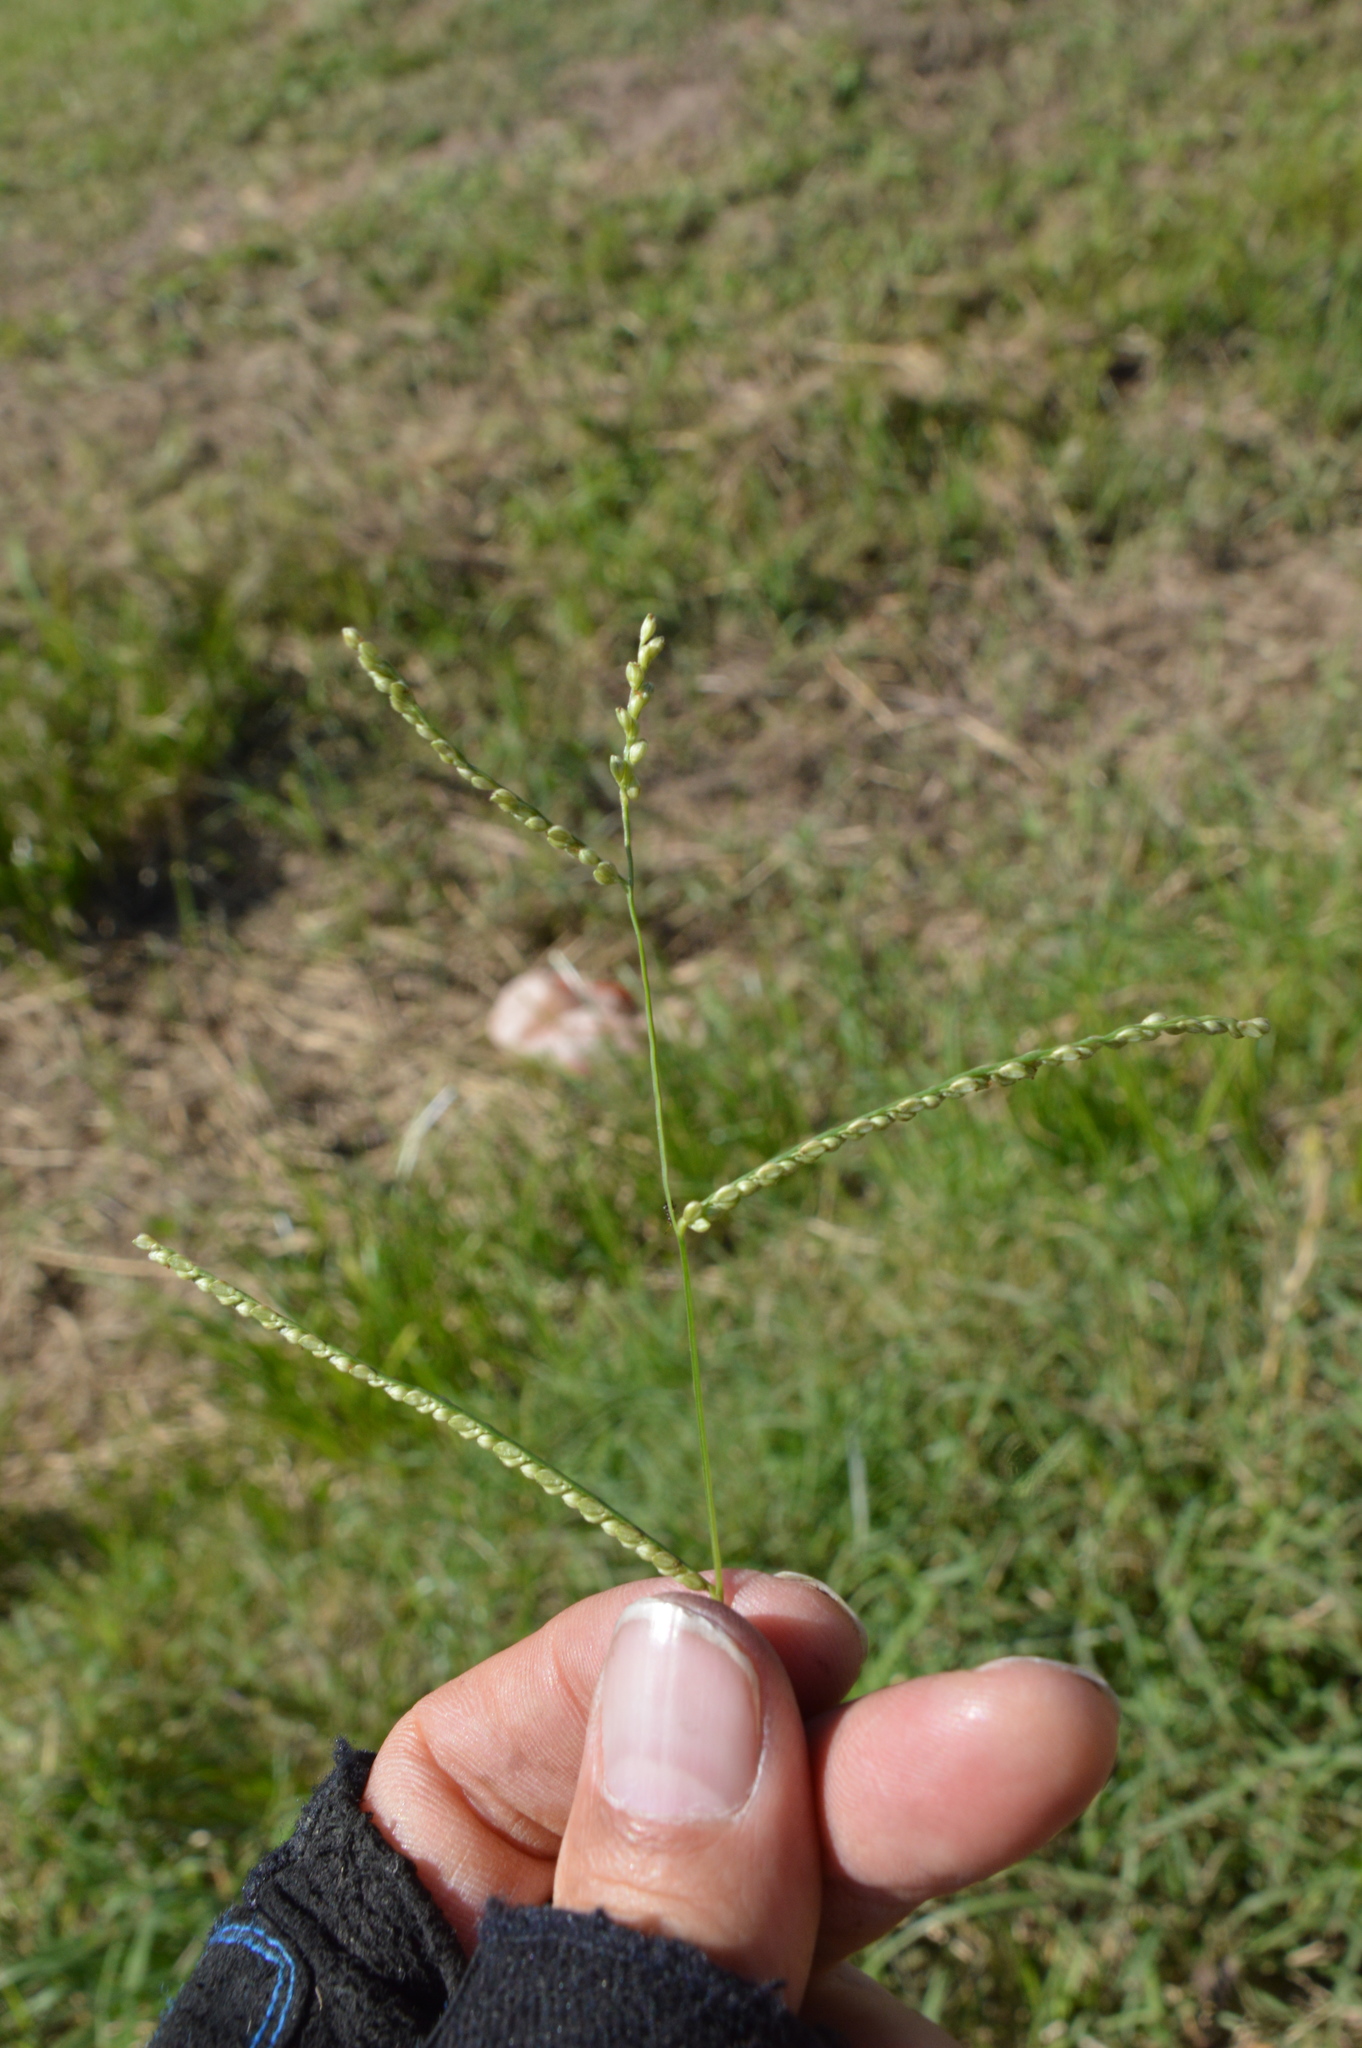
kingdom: Plantae
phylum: Tracheophyta
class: Liliopsida
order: Poales
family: Poaceae
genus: Paspalum
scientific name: Paspalum langei
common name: Rusty-seed paspalum
